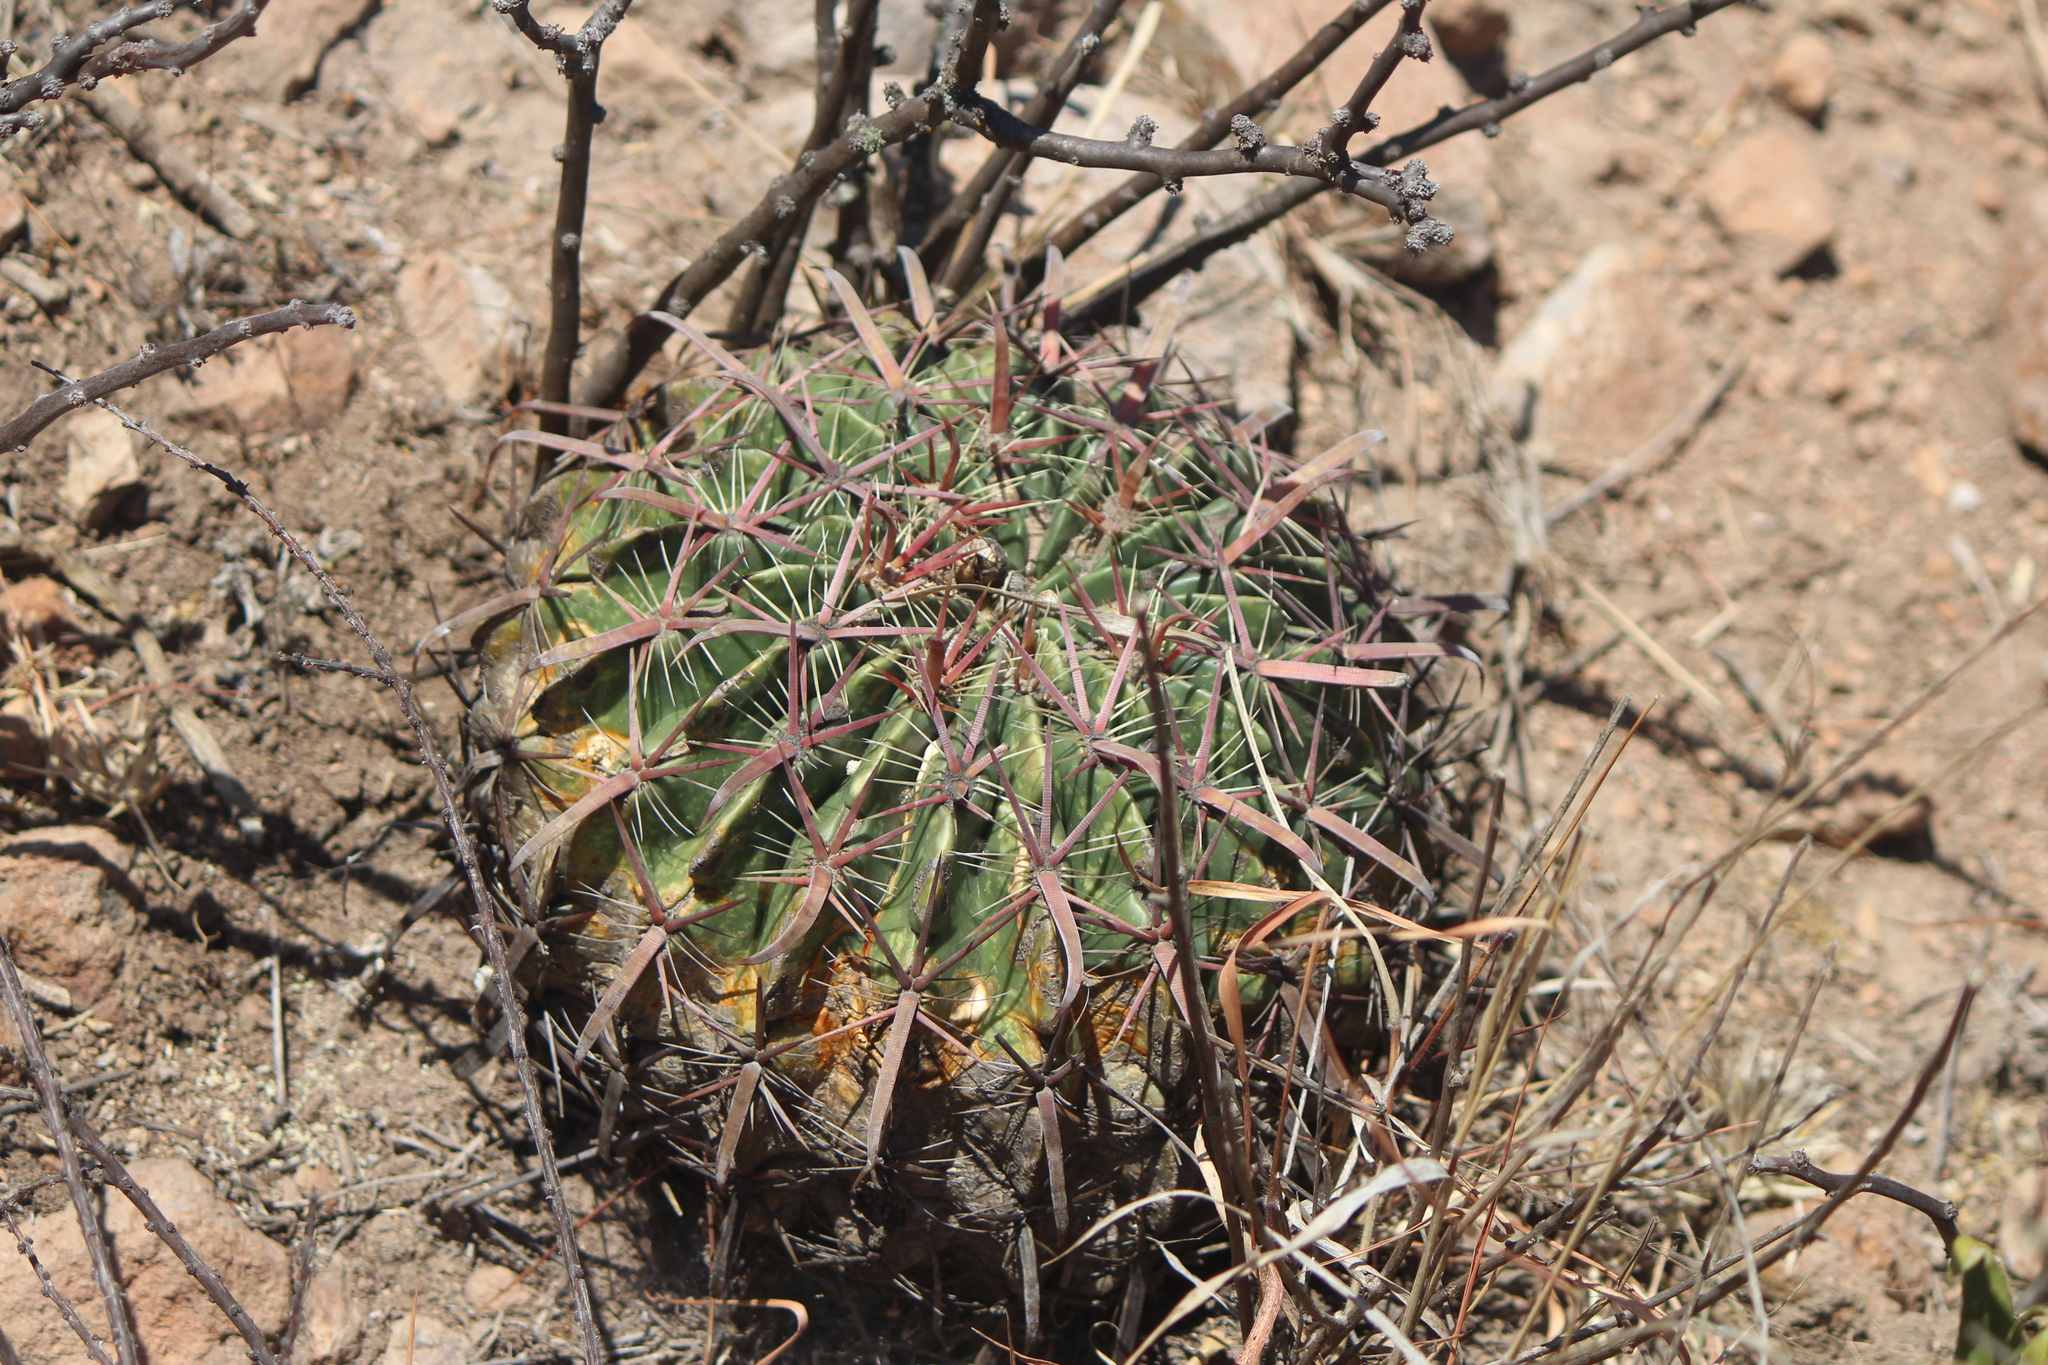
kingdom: Plantae
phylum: Tracheophyta
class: Magnoliopsida
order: Caryophyllales
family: Cactaceae
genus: Ferocactus
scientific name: Ferocactus latispinus
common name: Devil's-tongue cactus
